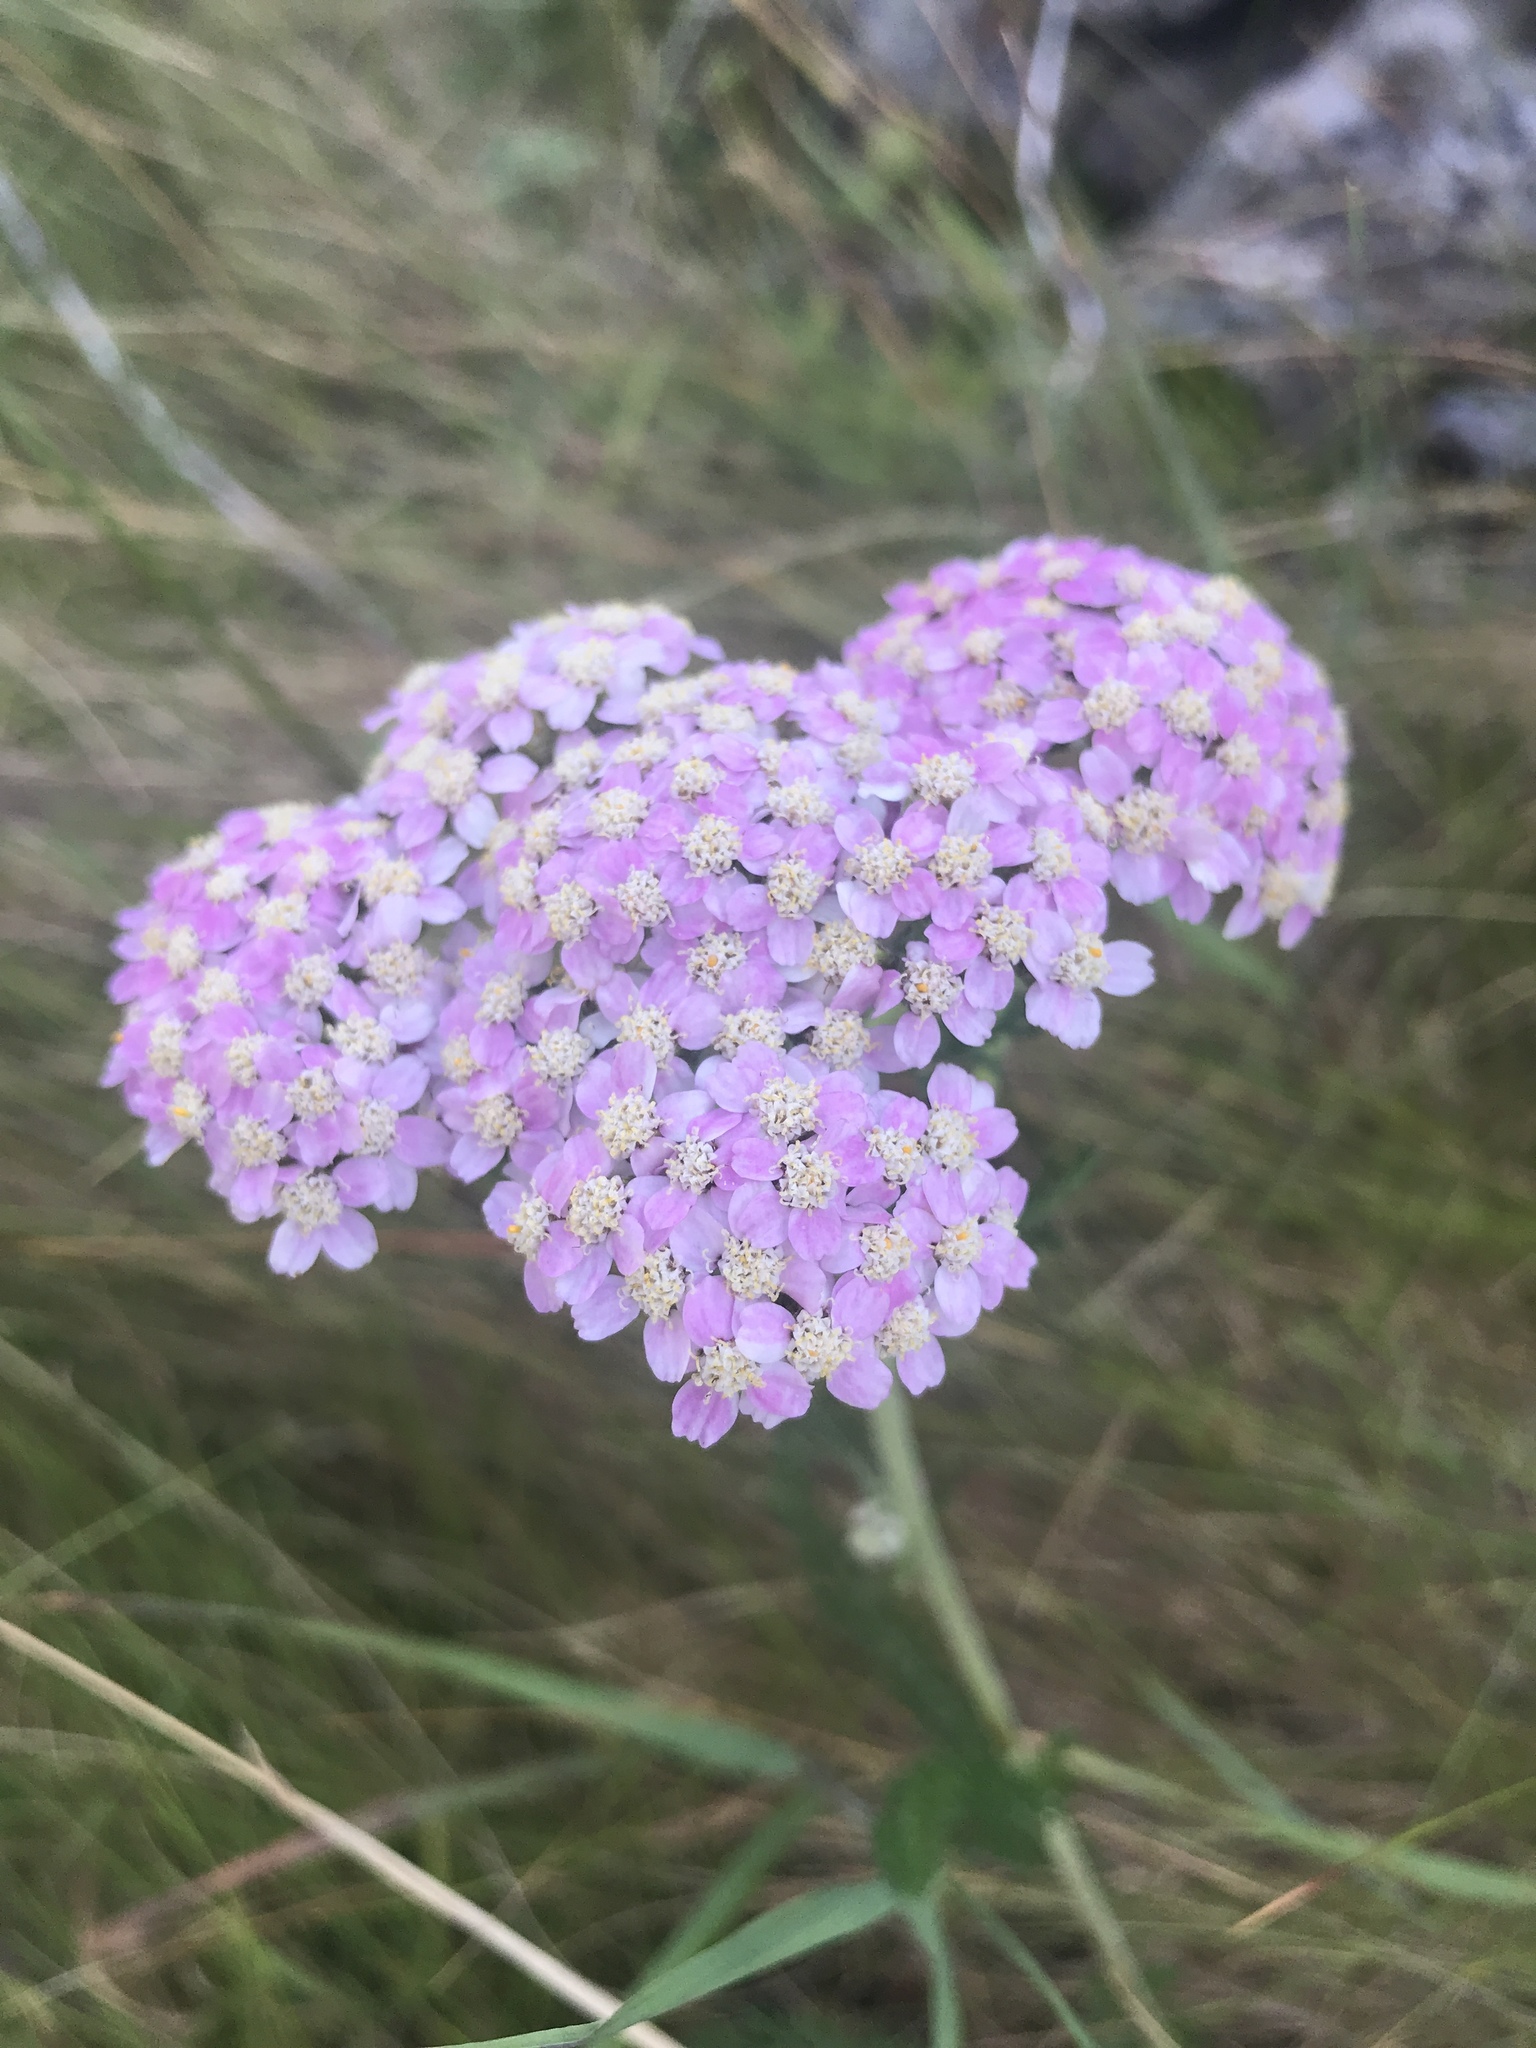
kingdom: Plantae
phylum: Tracheophyta
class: Magnoliopsida
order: Asterales
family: Asteraceae
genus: Achillea
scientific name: Achillea millefolium
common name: Yarrow
